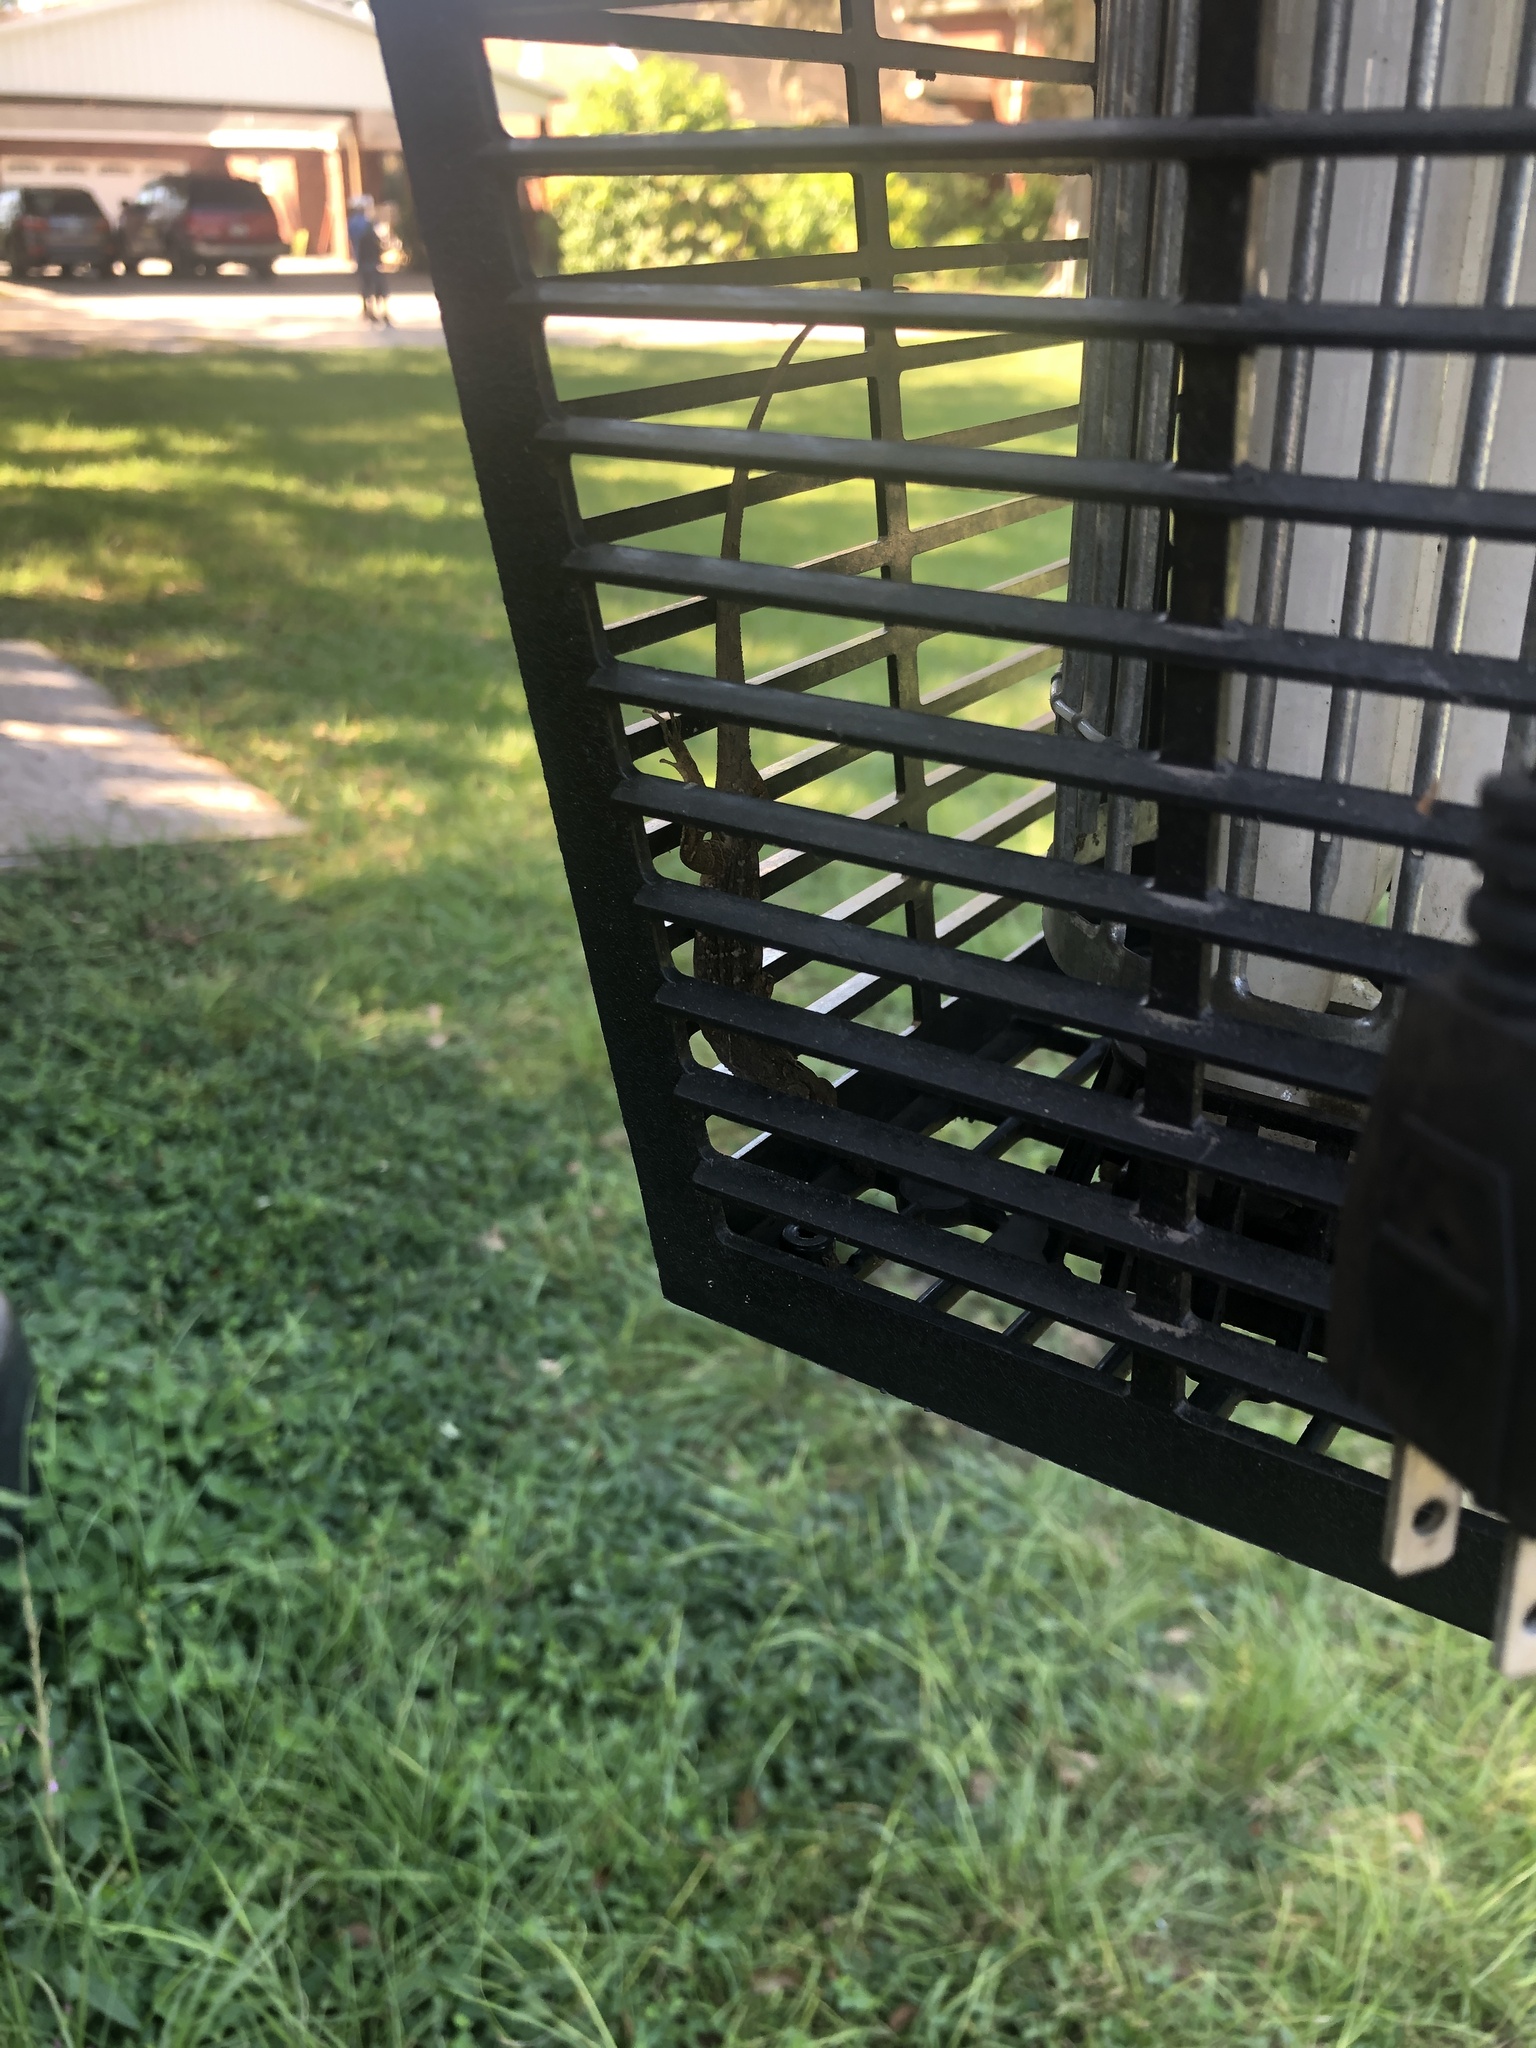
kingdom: Animalia
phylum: Chordata
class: Squamata
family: Dactyloidae
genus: Anolis
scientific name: Anolis sagrei
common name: Brown anole
